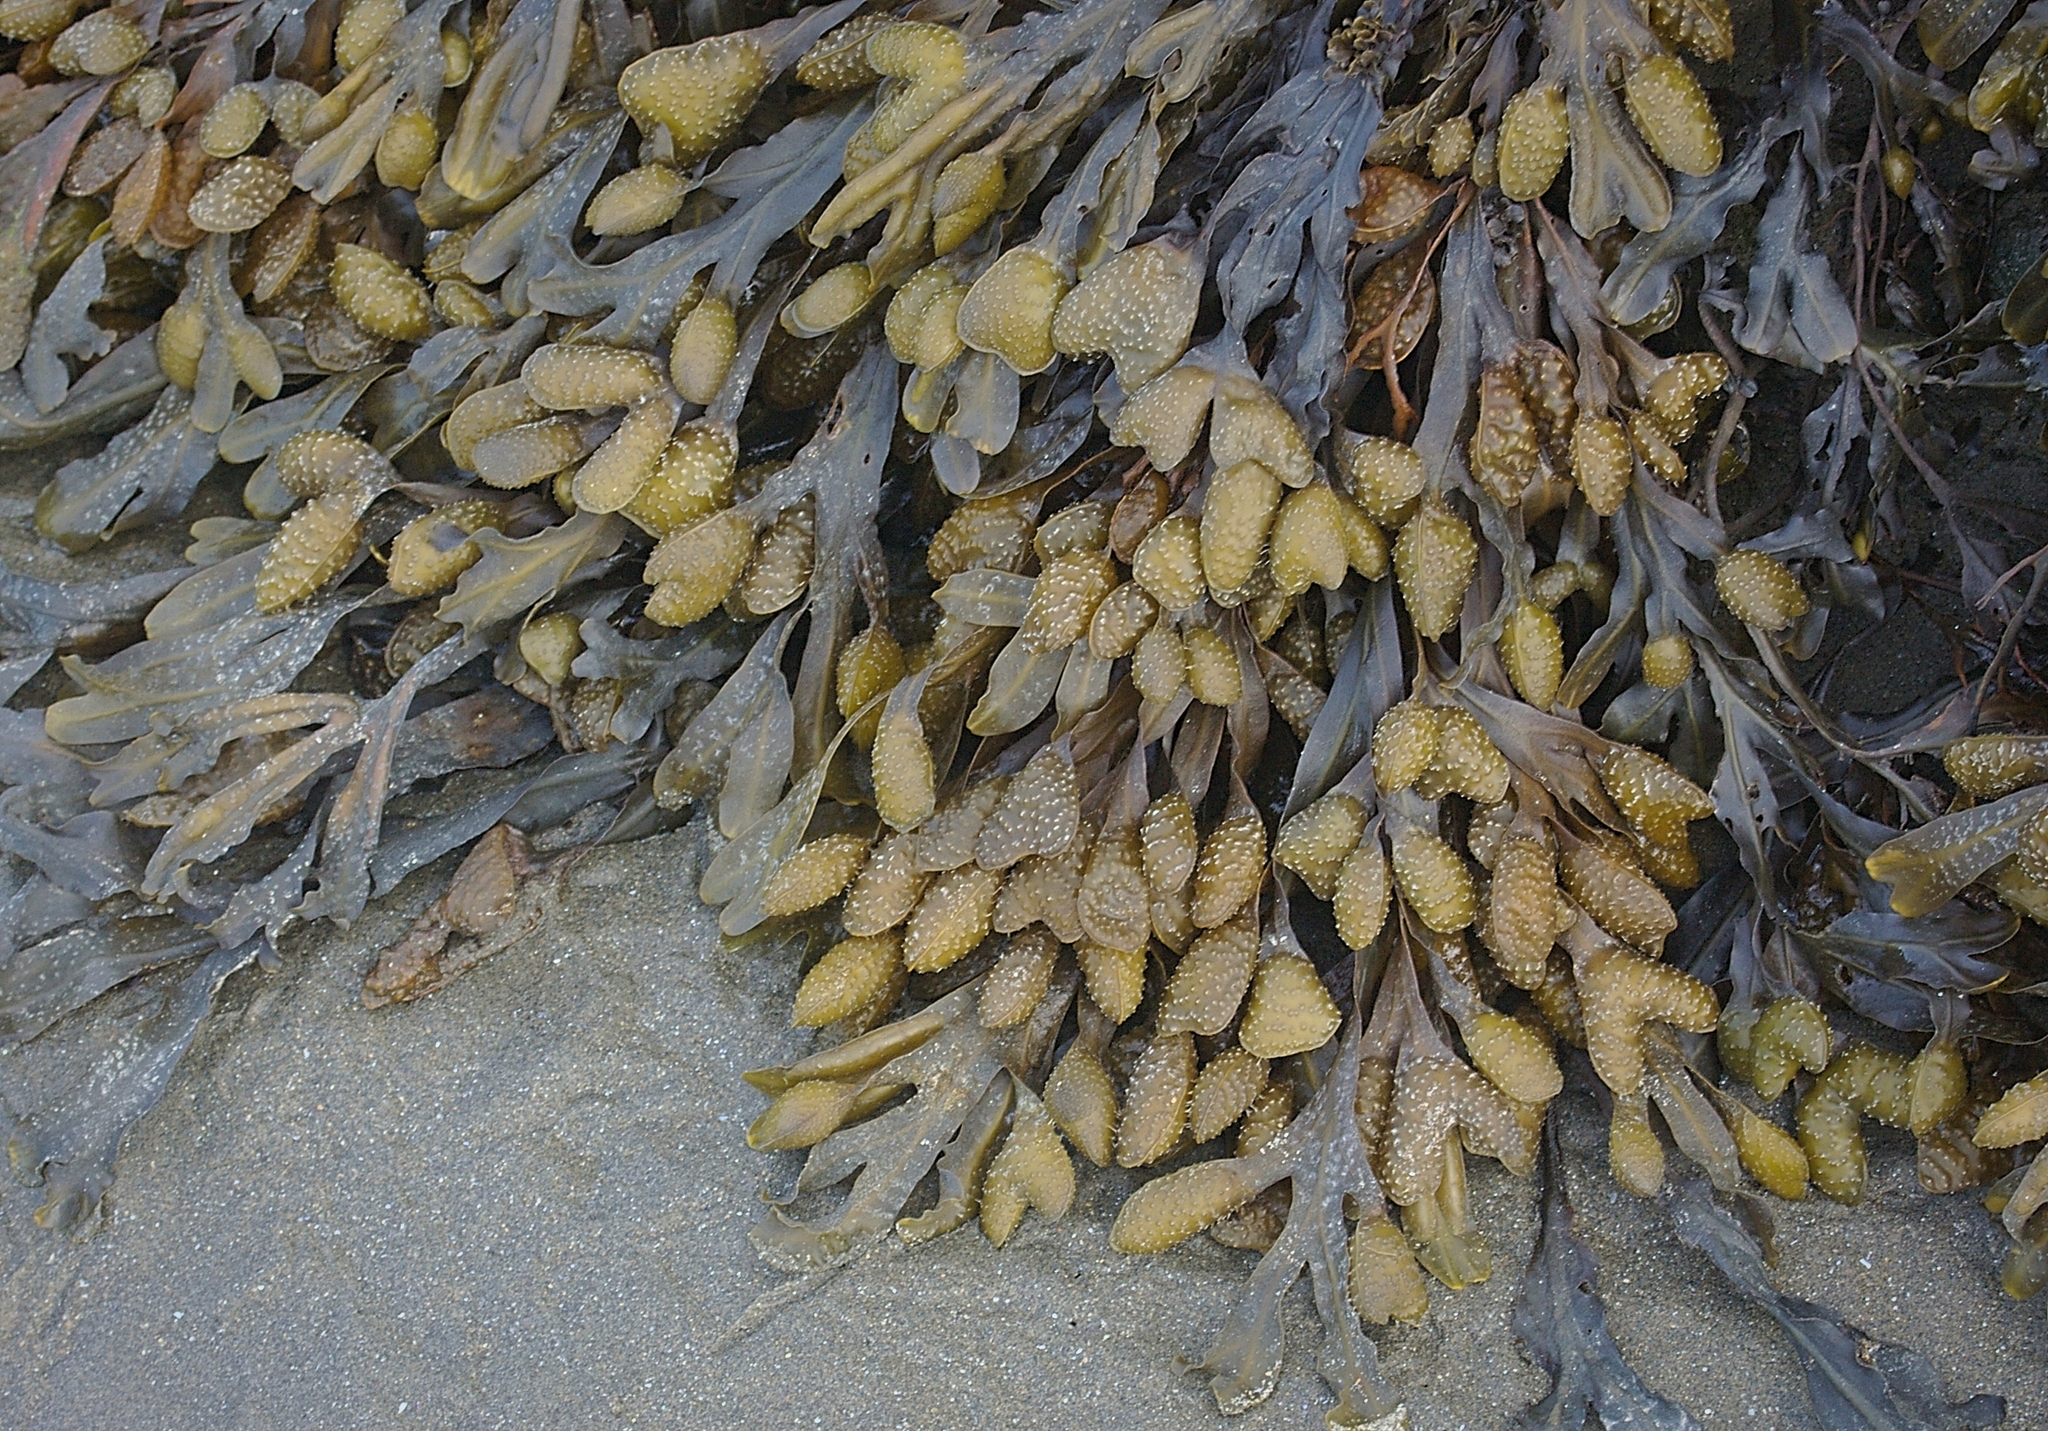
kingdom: Chromista
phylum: Ochrophyta
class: Phaeophyceae
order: Fucales
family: Fucaceae
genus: Fucus
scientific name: Fucus vesiculosus
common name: Bladder wrack
